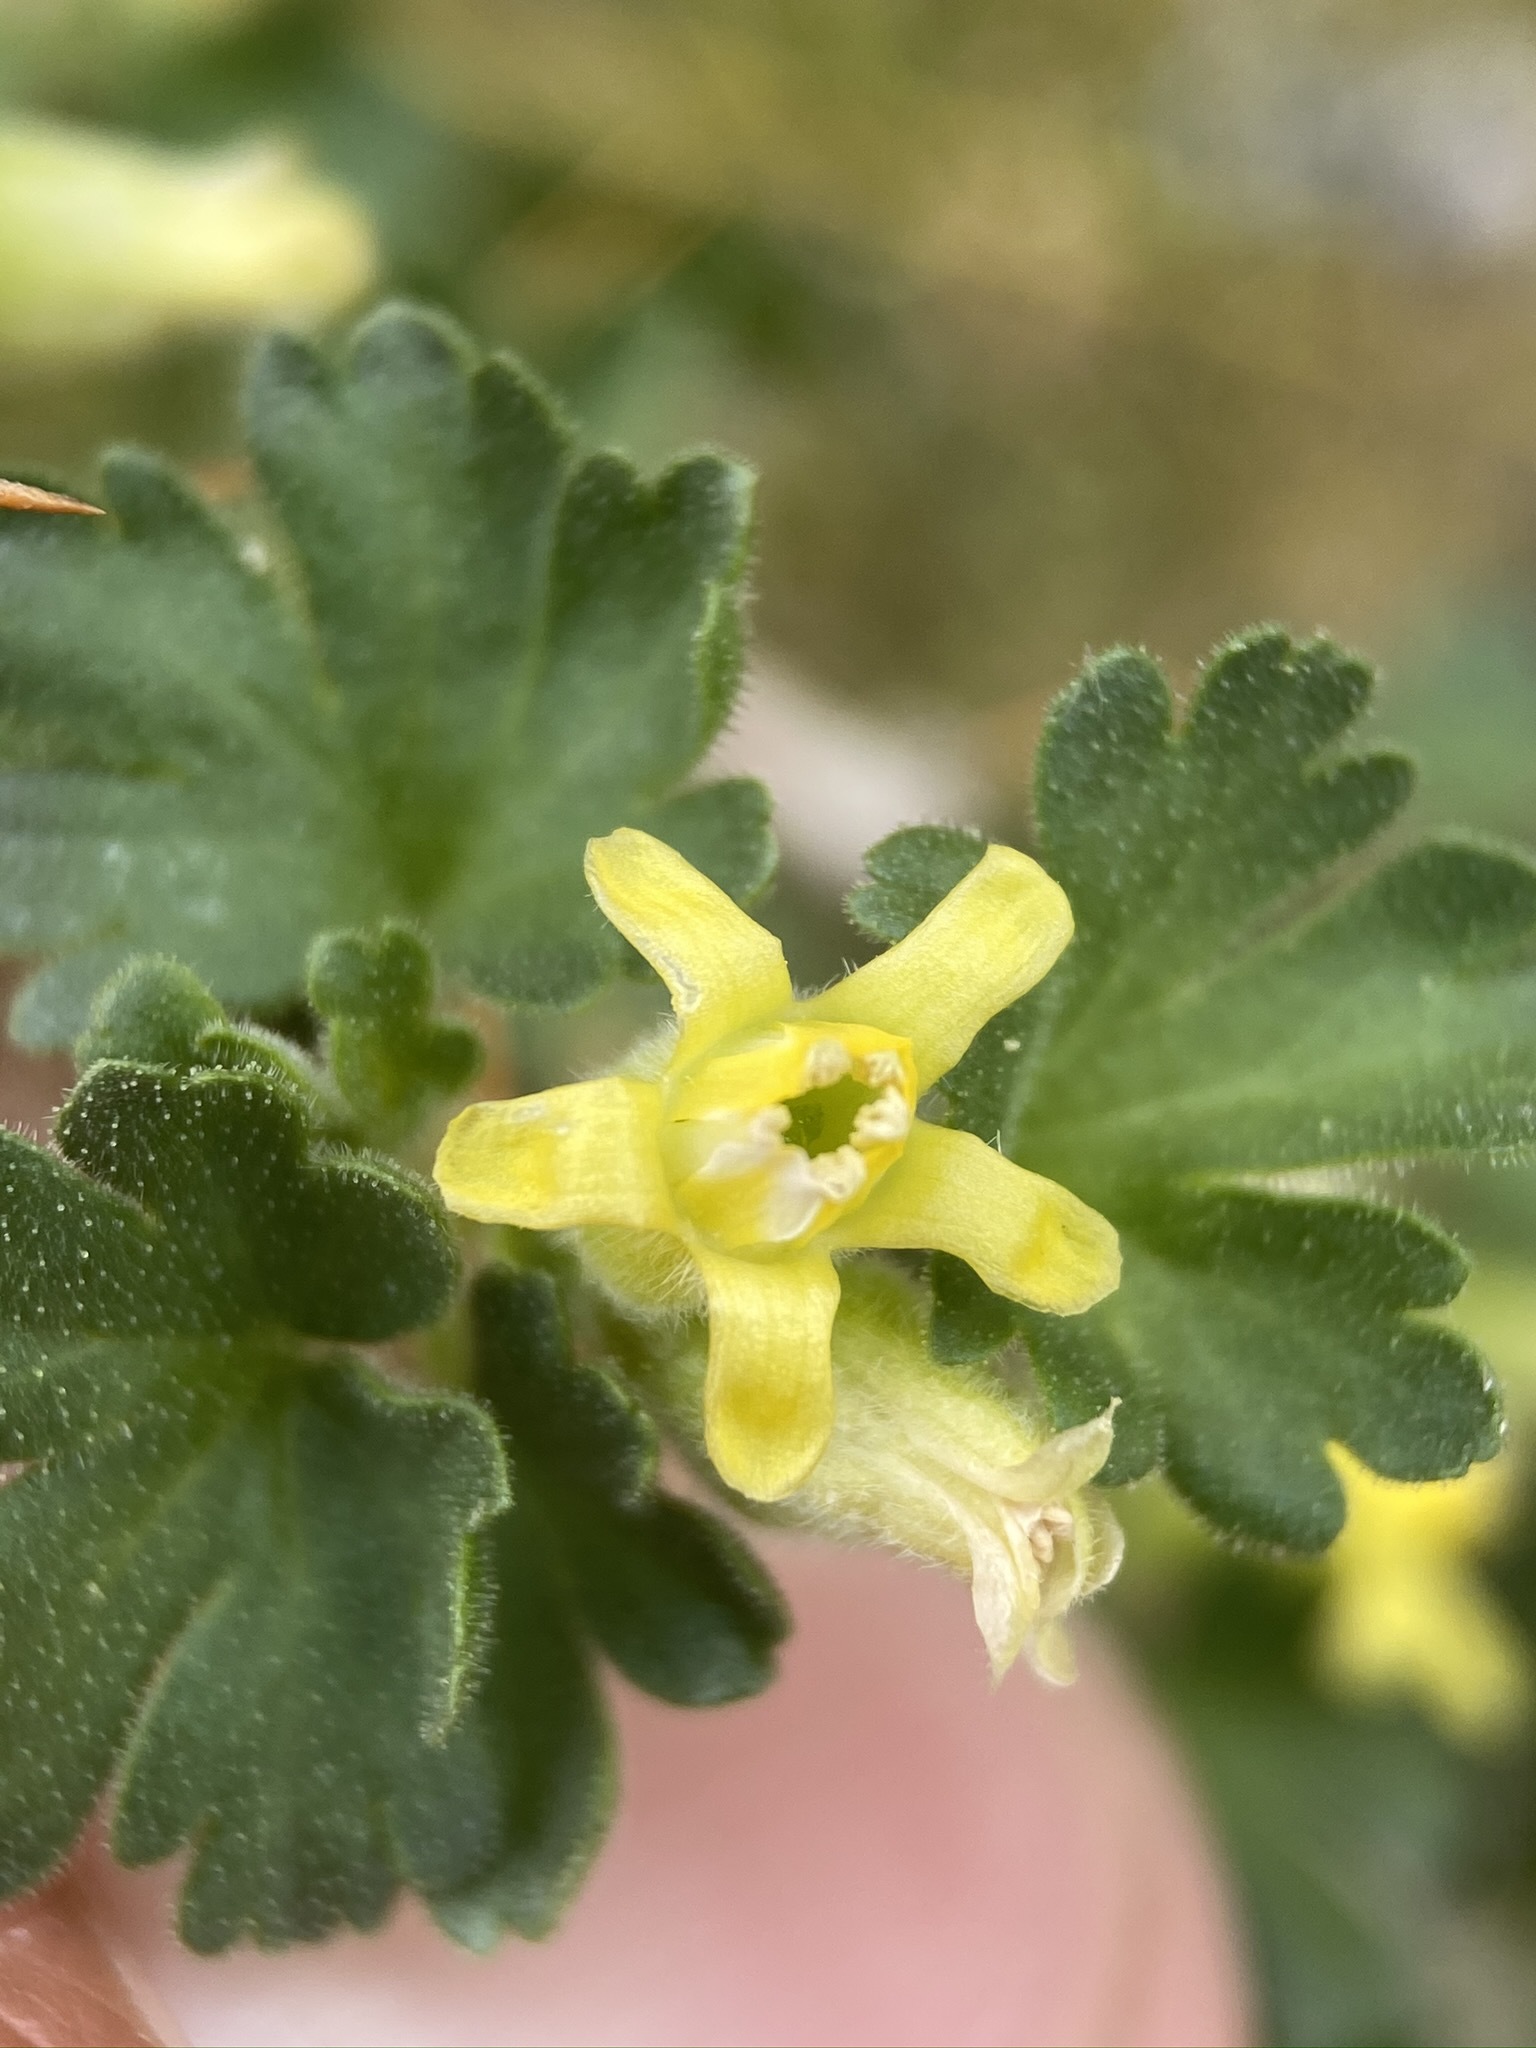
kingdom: Plantae
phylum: Tracheophyta
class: Magnoliopsida
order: Saxifragales
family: Grossulariaceae
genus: Ribes
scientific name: Ribes velutinum
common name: Desert gooseberry
